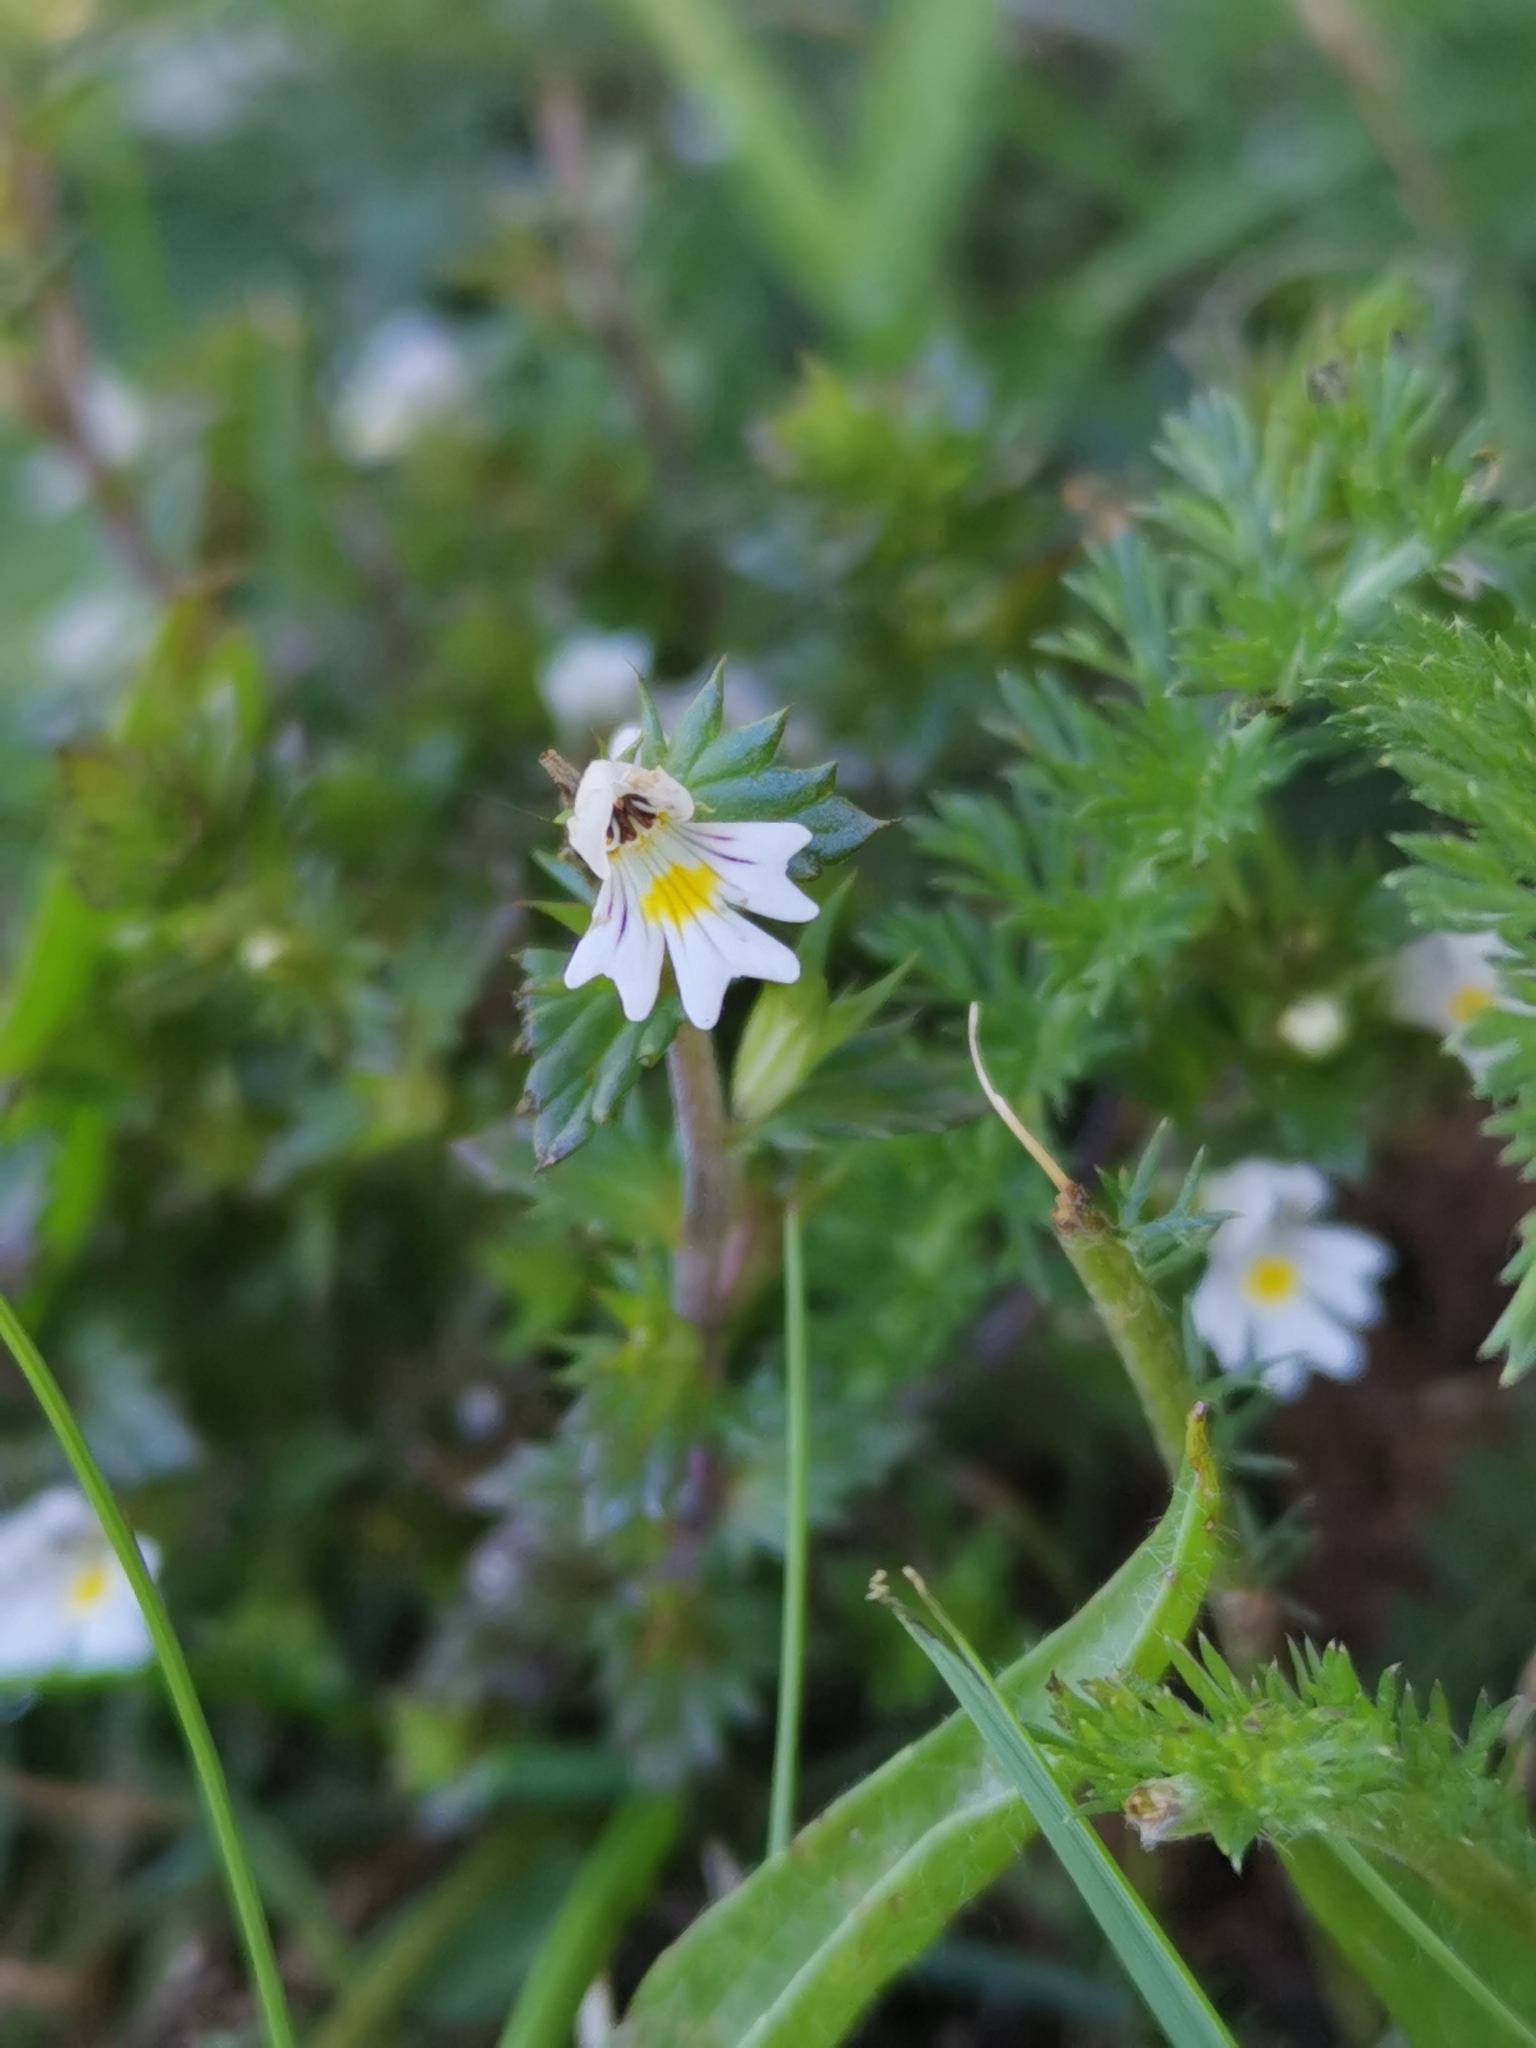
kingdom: Plantae
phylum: Tracheophyta
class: Magnoliopsida
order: Lamiales
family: Orobanchaceae
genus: Euphrasia
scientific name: Euphrasia nemorosa
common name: Common eyebright
